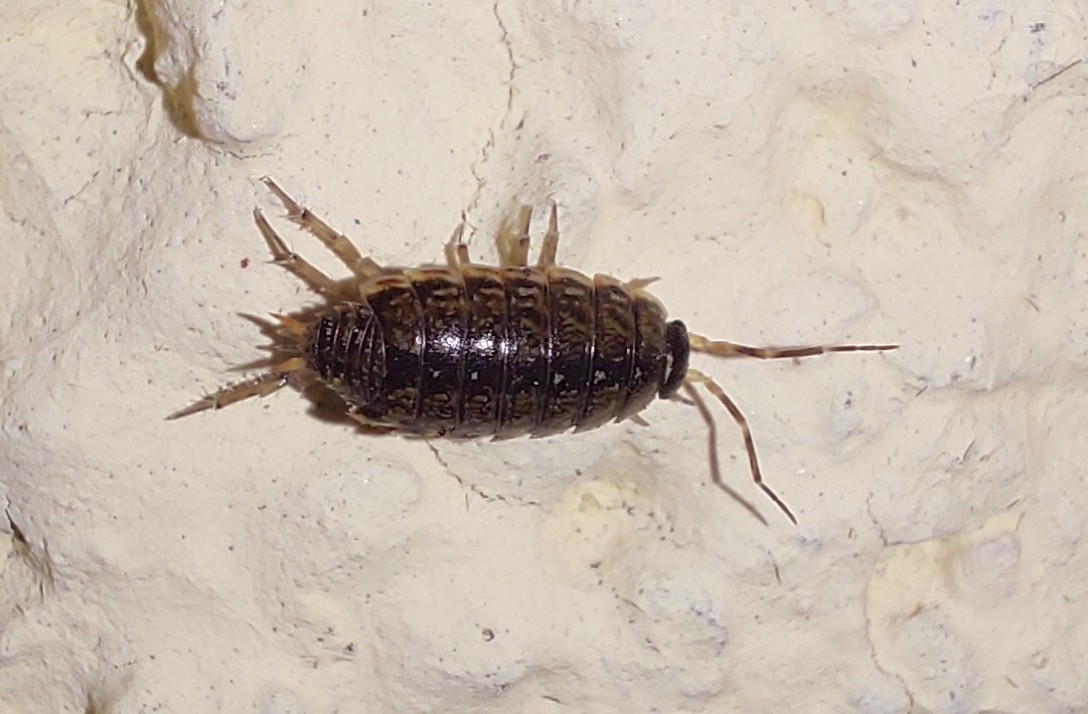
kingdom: Animalia
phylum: Arthropoda
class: Malacostraca
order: Isopoda
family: Philosciidae
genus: Philoscia
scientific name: Philoscia muscorum
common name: Common striped woodlouse
